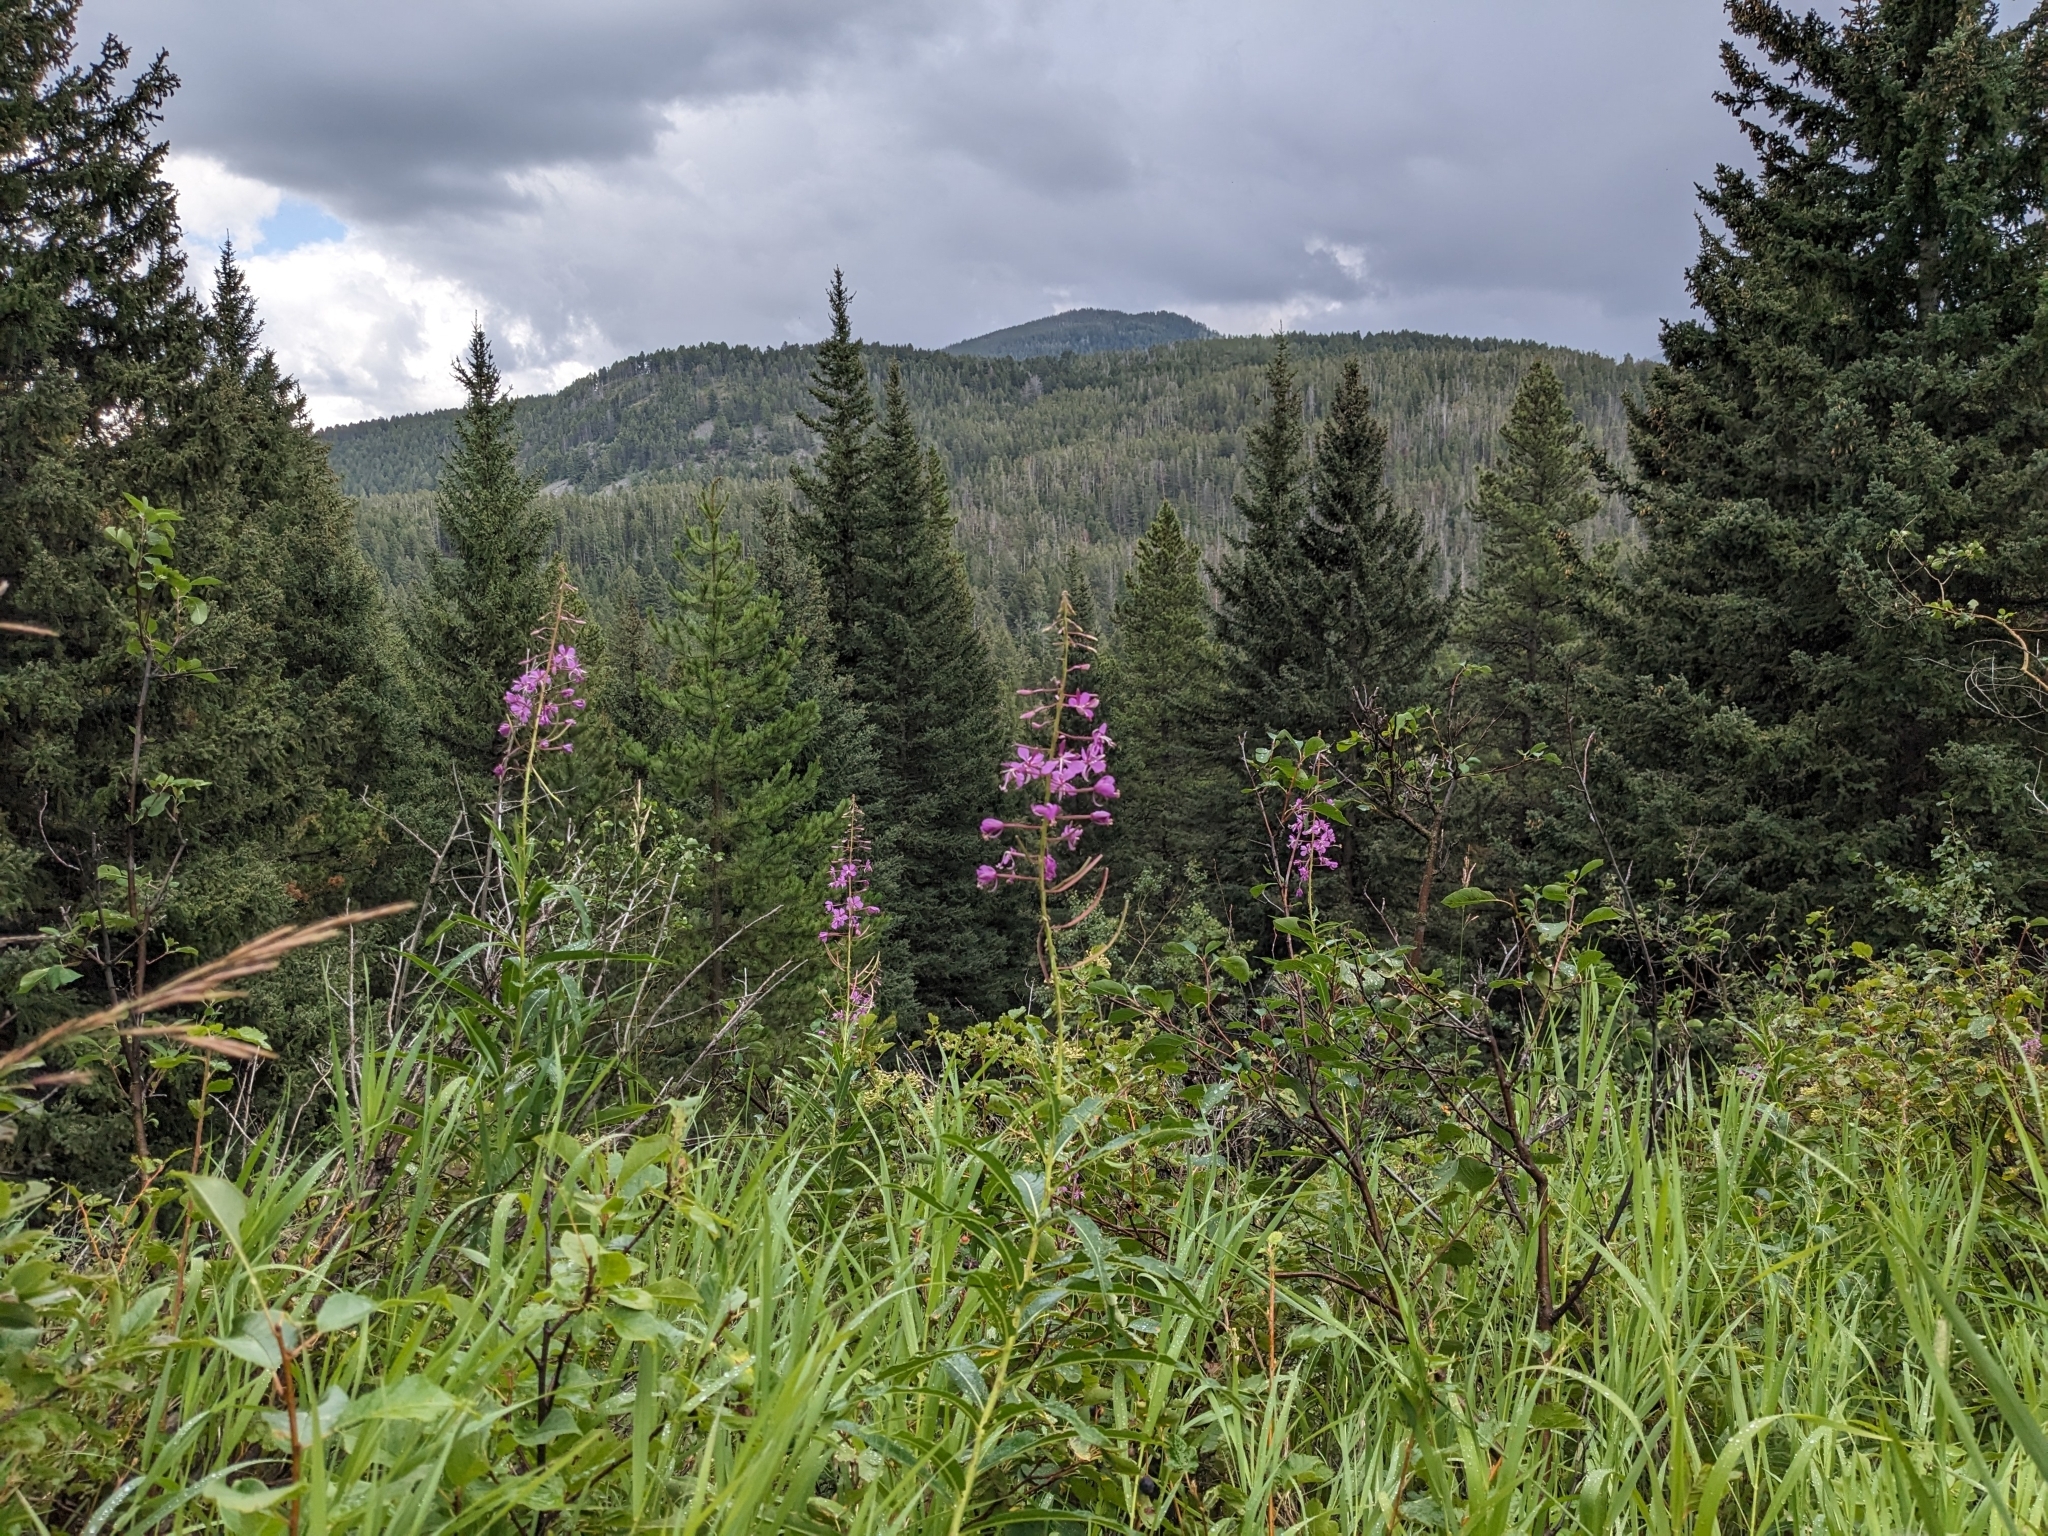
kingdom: Plantae
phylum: Tracheophyta
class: Magnoliopsida
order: Myrtales
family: Onagraceae
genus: Chamaenerion
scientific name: Chamaenerion angustifolium
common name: Fireweed
